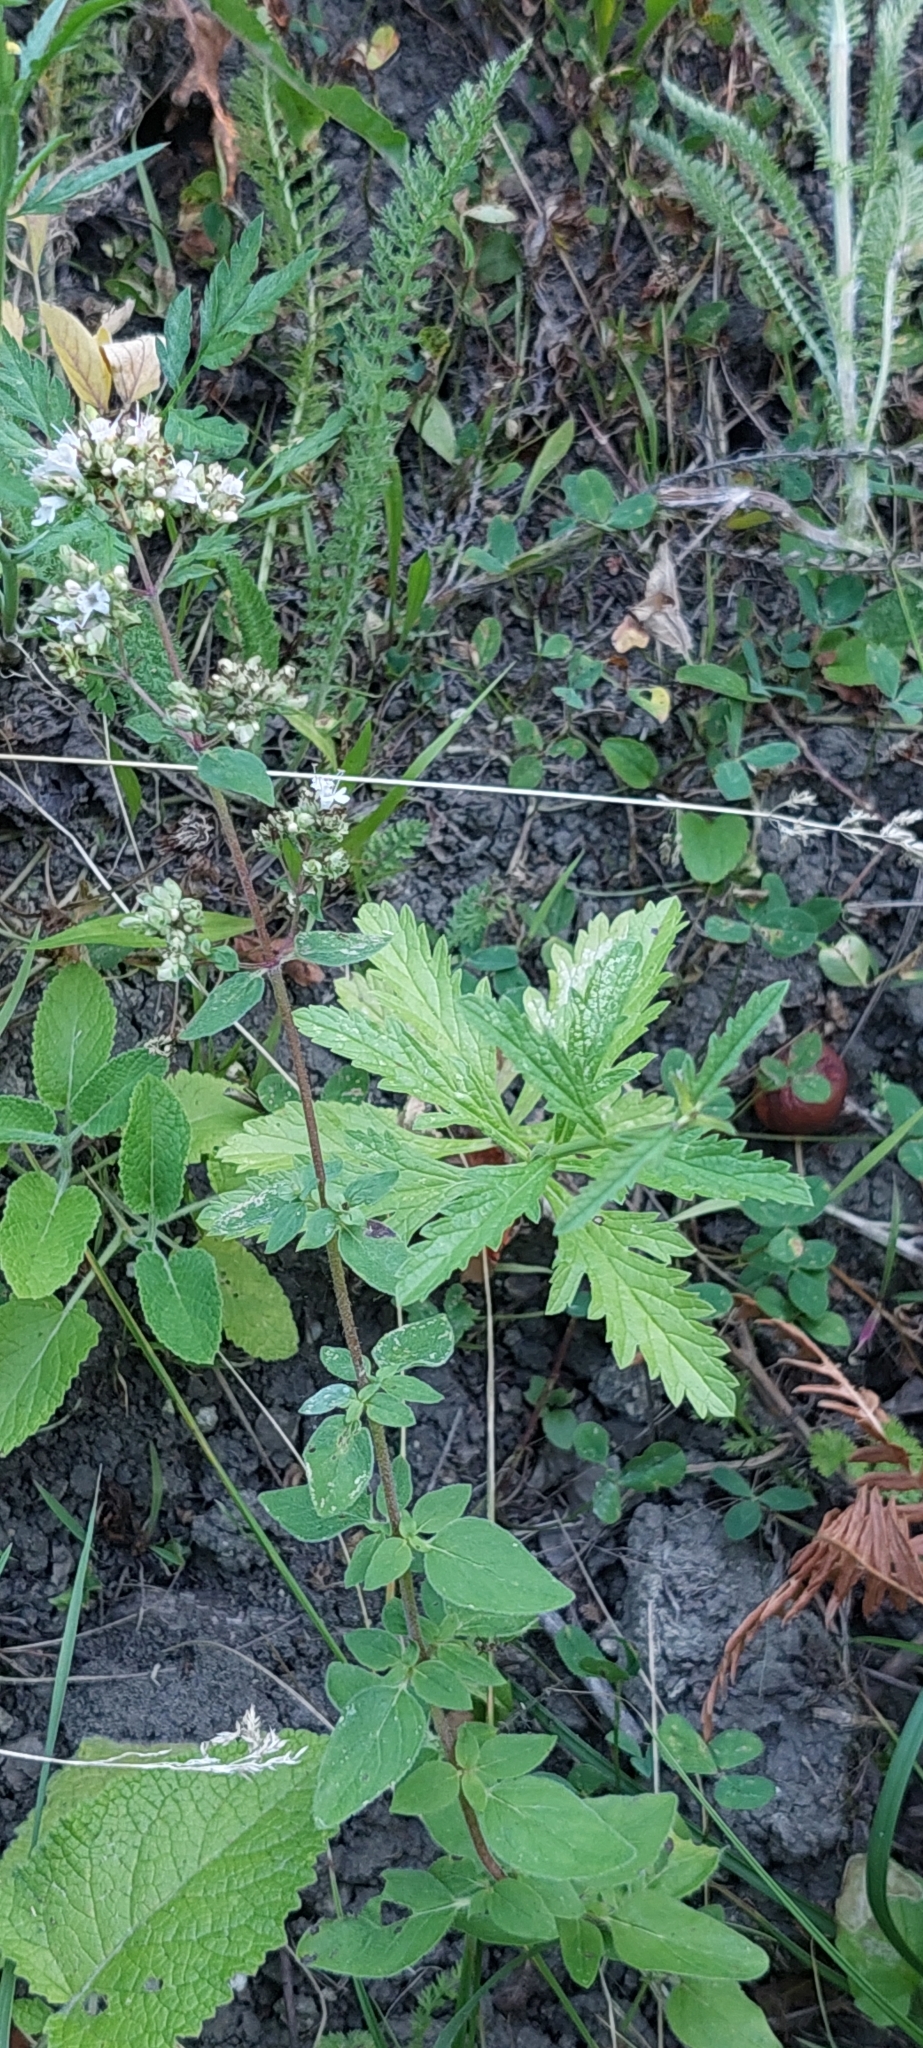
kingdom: Plantae
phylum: Tracheophyta
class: Magnoliopsida
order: Lamiales
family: Lamiaceae
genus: Origanum
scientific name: Origanum vulgare
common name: Wild marjoram
